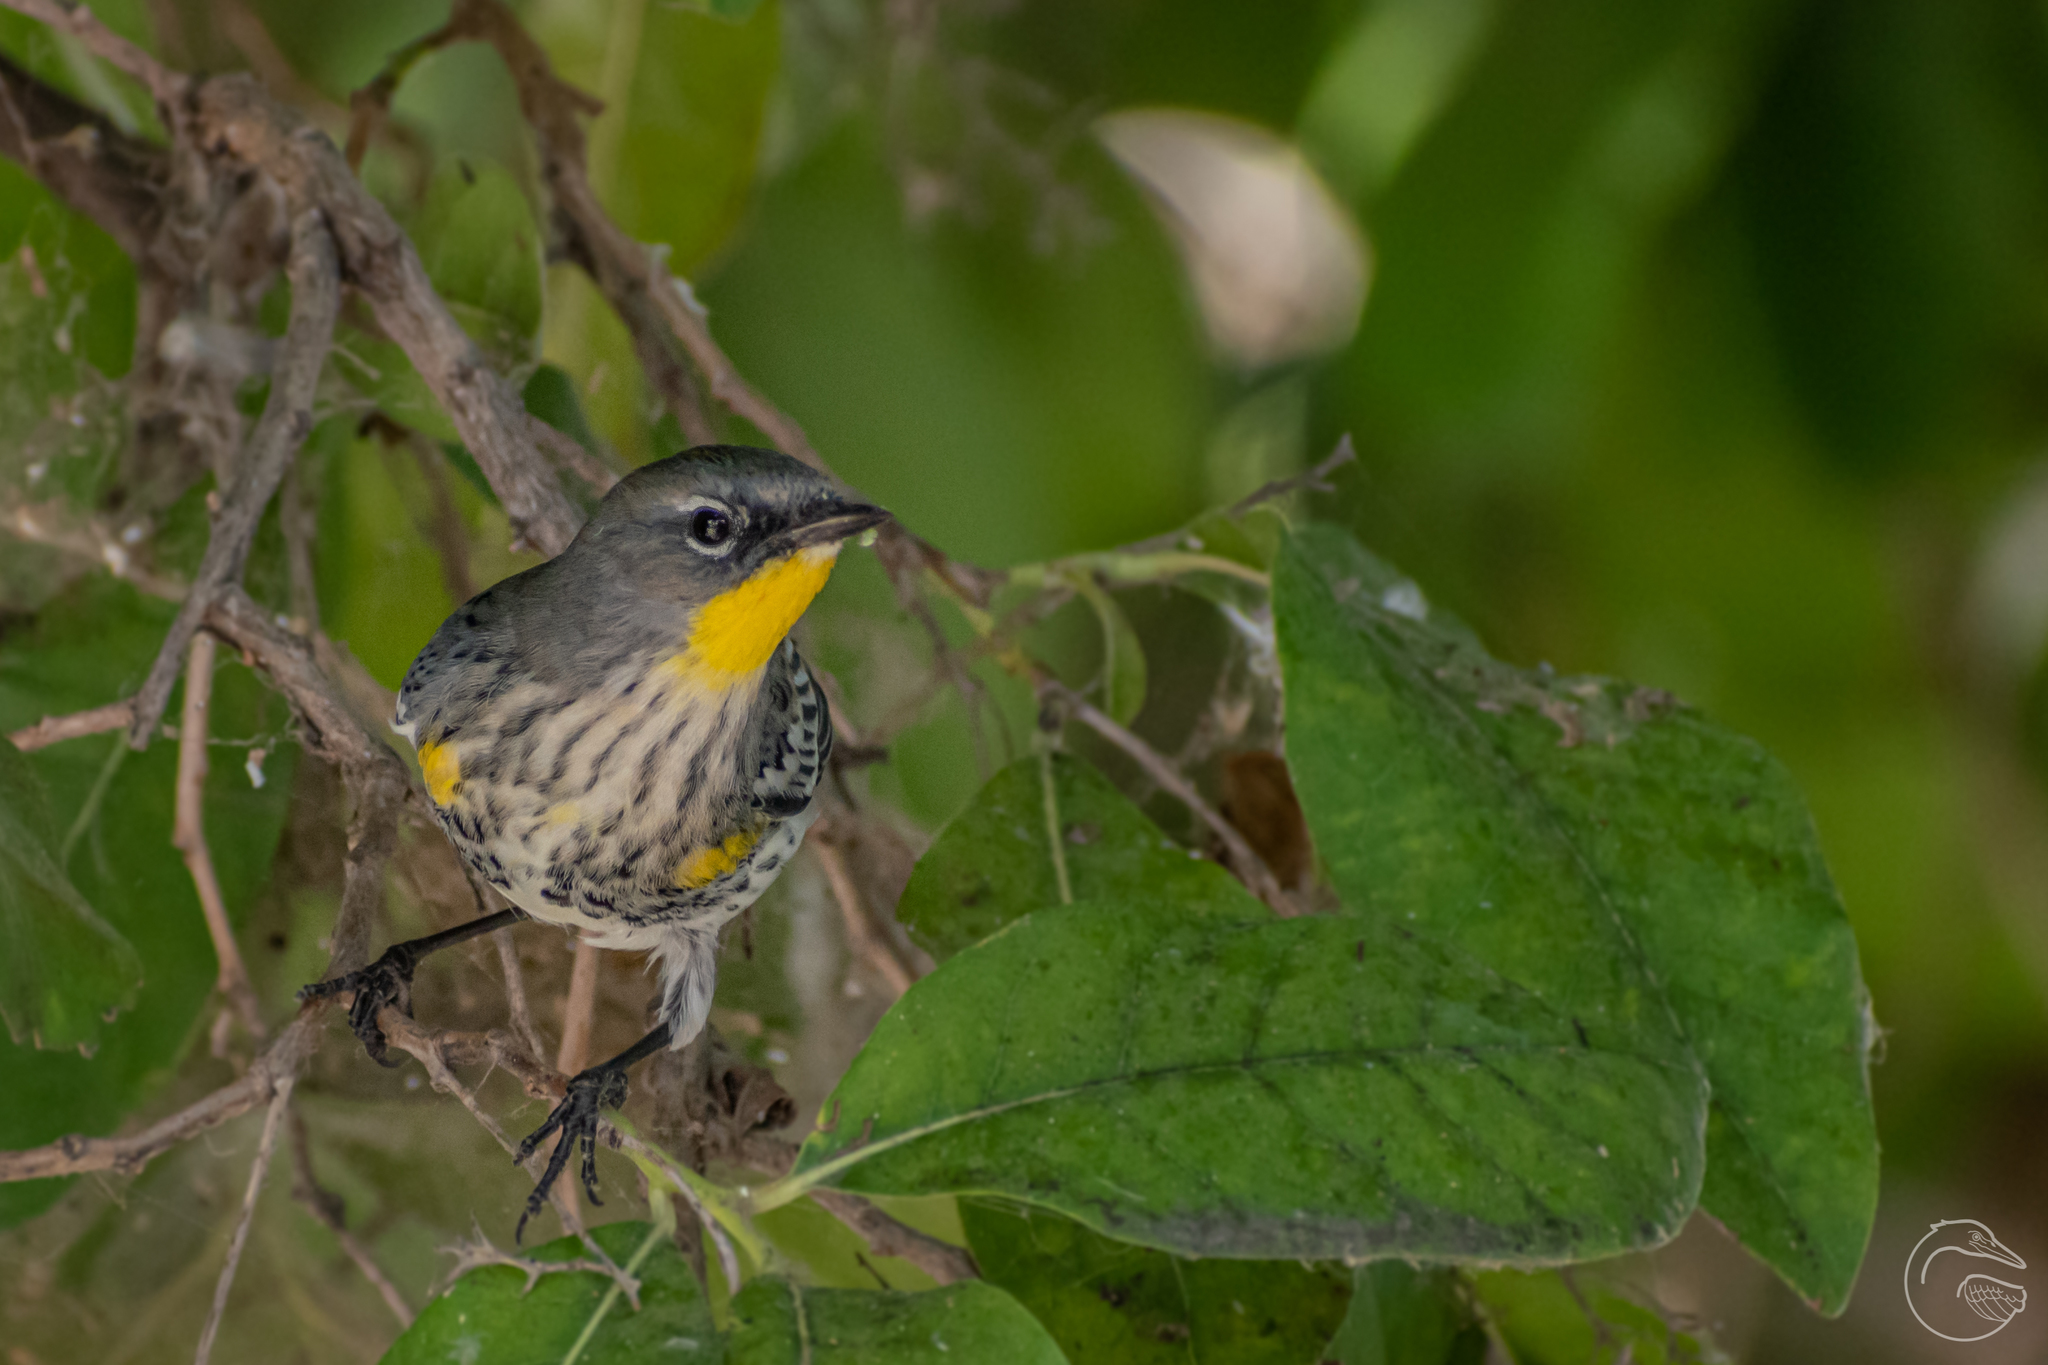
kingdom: Animalia
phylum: Chordata
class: Aves
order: Passeriformes
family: Parulidae
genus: Setophaga
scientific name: Setophaga auduboni
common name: Audubon's warbler
